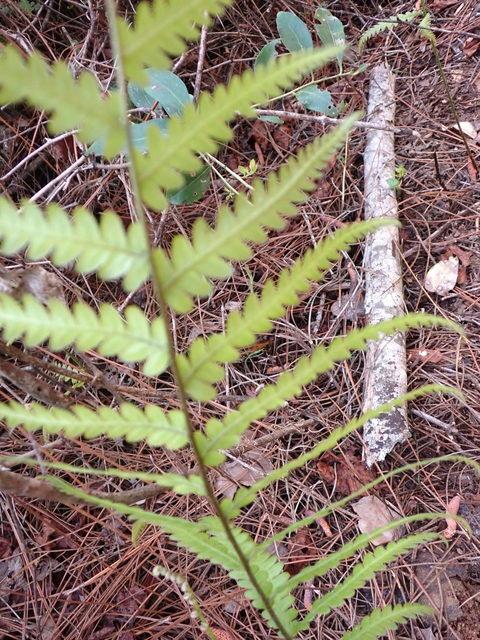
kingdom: Plantae
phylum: Tracheophyta
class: Polypodiopsida
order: Polypodiales
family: Blechnaceae
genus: Anchistea
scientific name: Anchistea virginica
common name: Virginia chain fern
